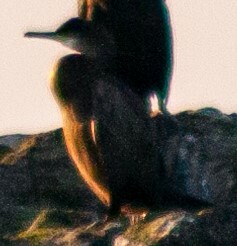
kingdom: Animalia
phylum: Chordata
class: Aves
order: Suliformes
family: Phalacrocoracidae
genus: Phalacrocorax
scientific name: Phalacrocorax aristotelis
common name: European shag
